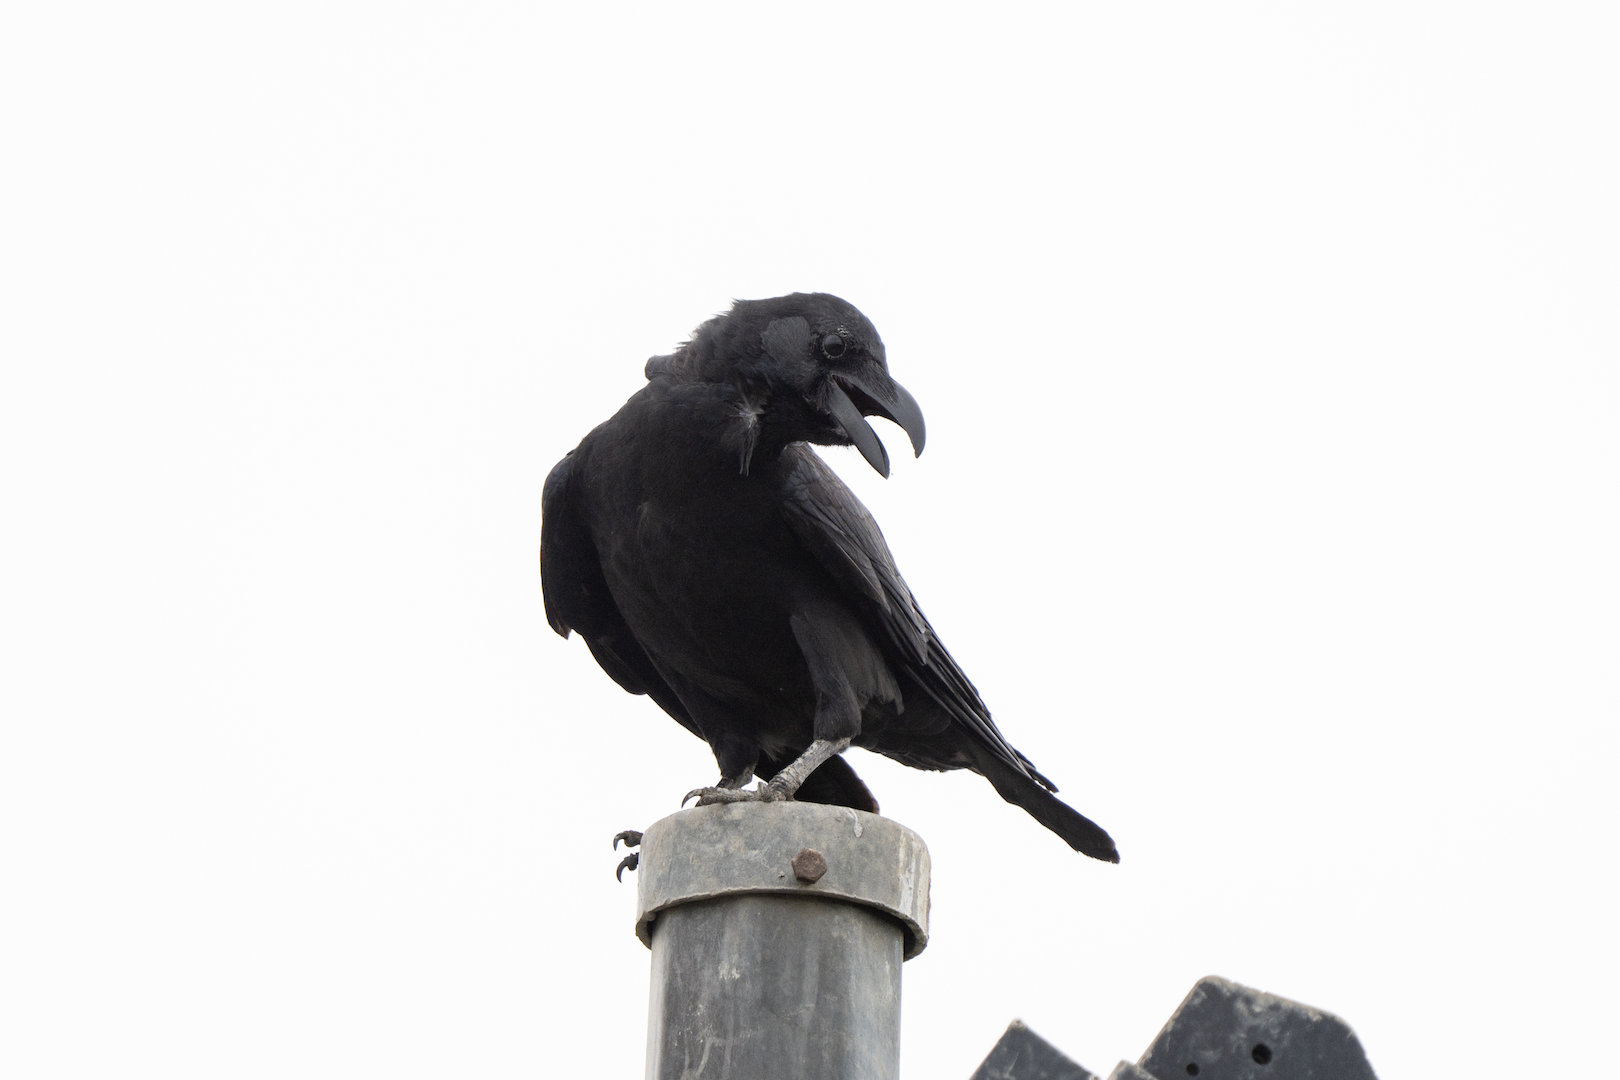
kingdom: Animalia
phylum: Chordata
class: Aves
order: Passeriformes
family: Corvidae
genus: Corvus
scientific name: Corvus macrorhynchos
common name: Large-billed crow
